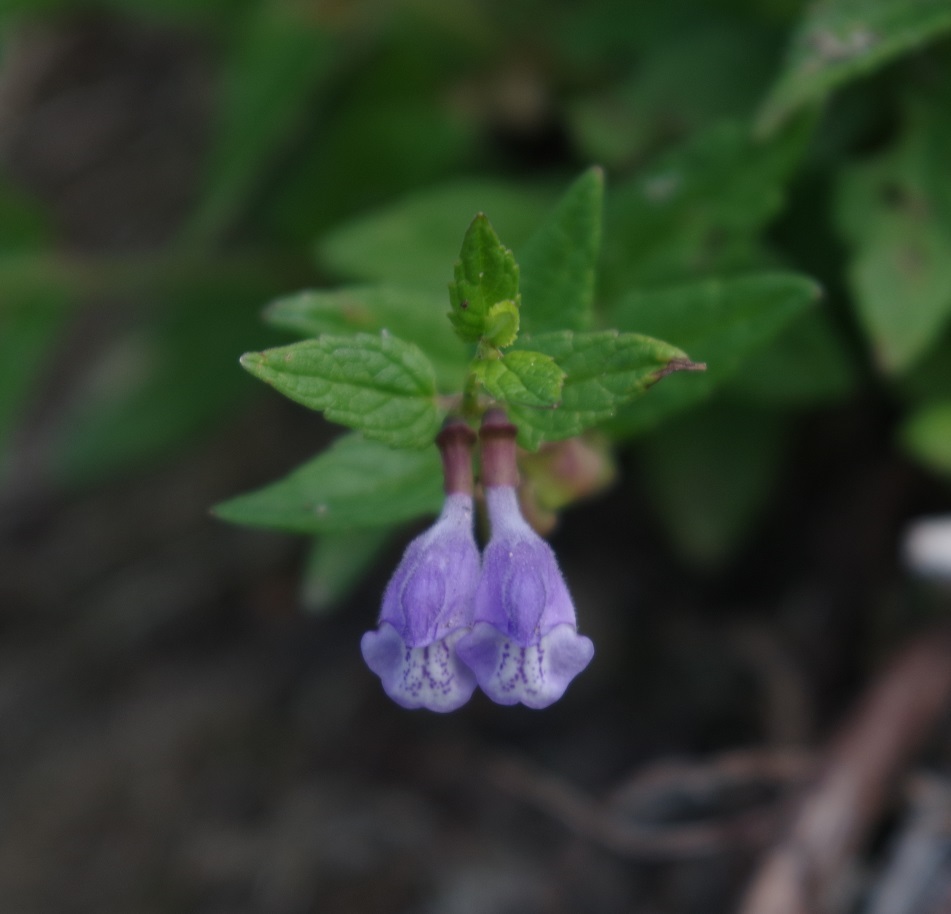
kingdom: Plantae
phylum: Tracheophyta
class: Magnoliopsida
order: Lamiales
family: Lamiaceae
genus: Scutellaria
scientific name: Scutellaria galericulata
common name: Skullcap
